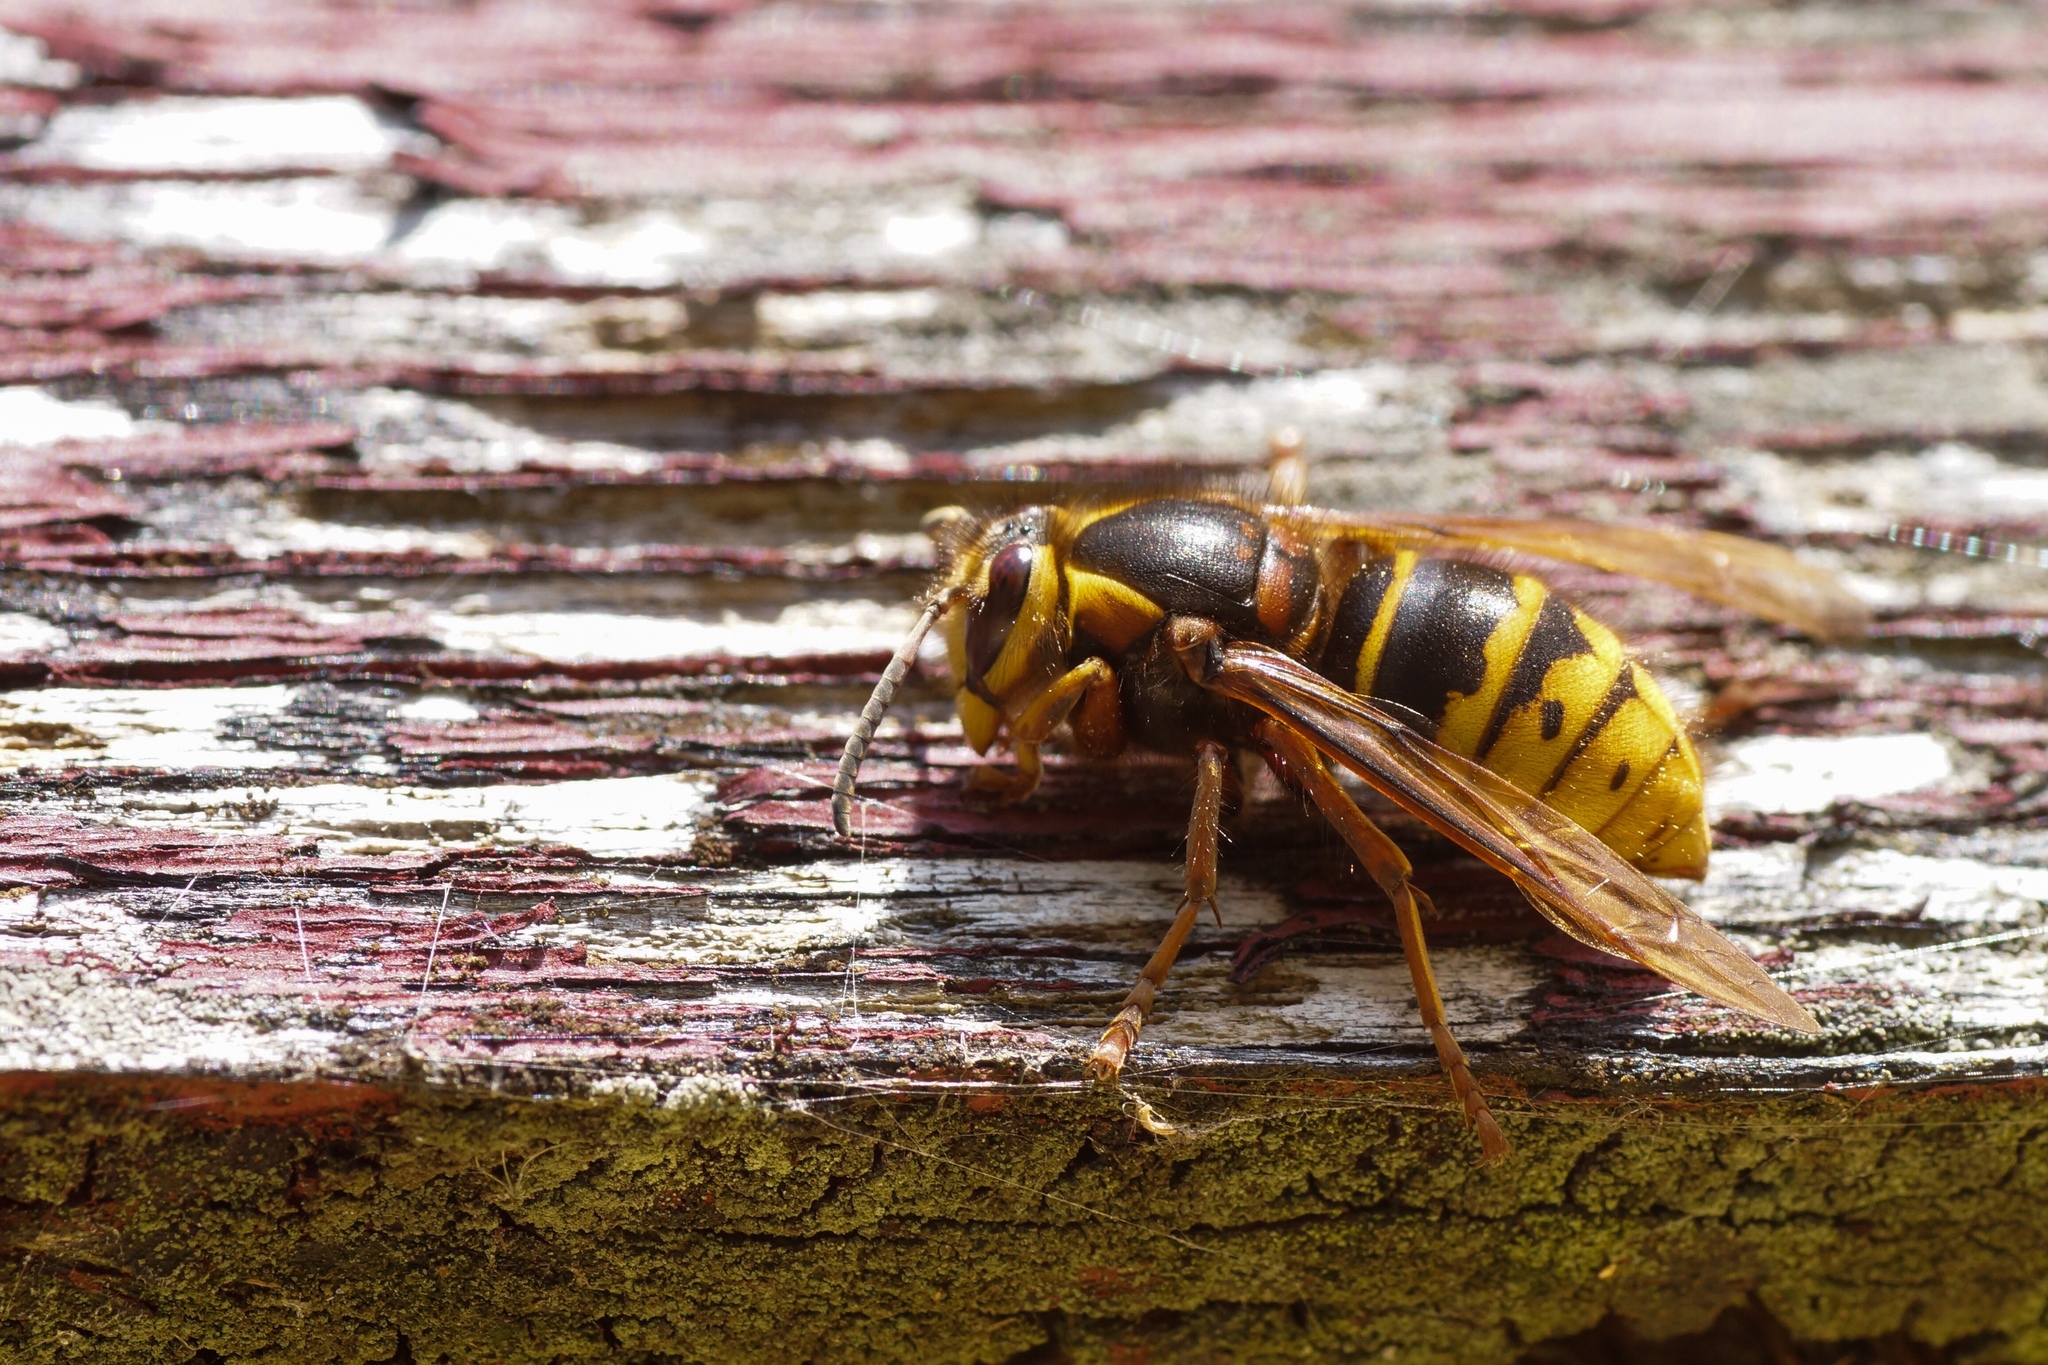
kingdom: Animalia
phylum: Arthropoda
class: Insecta
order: Hymenoptera
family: Vespidae
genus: Dolichovespula
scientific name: Dolichovespula media
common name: Median wasp
